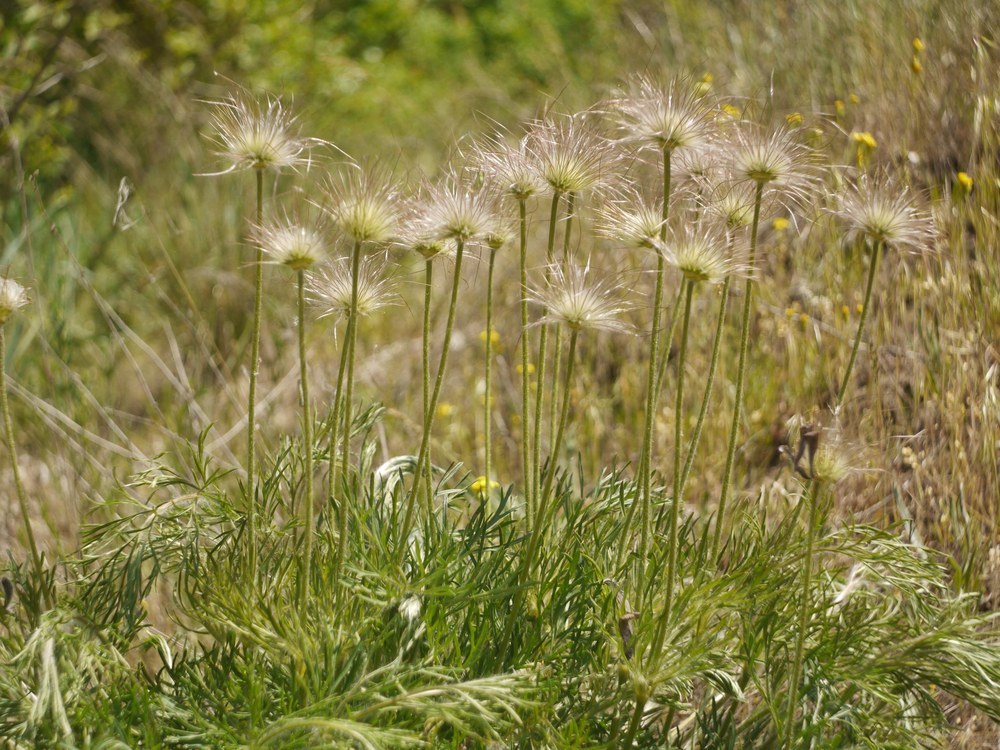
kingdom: Plantae
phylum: Tracheophyta
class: Magnoliopsida
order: Ranunculales
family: Ranunculaceae
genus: Pulsatilla
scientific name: Pulsatilla pratensis
